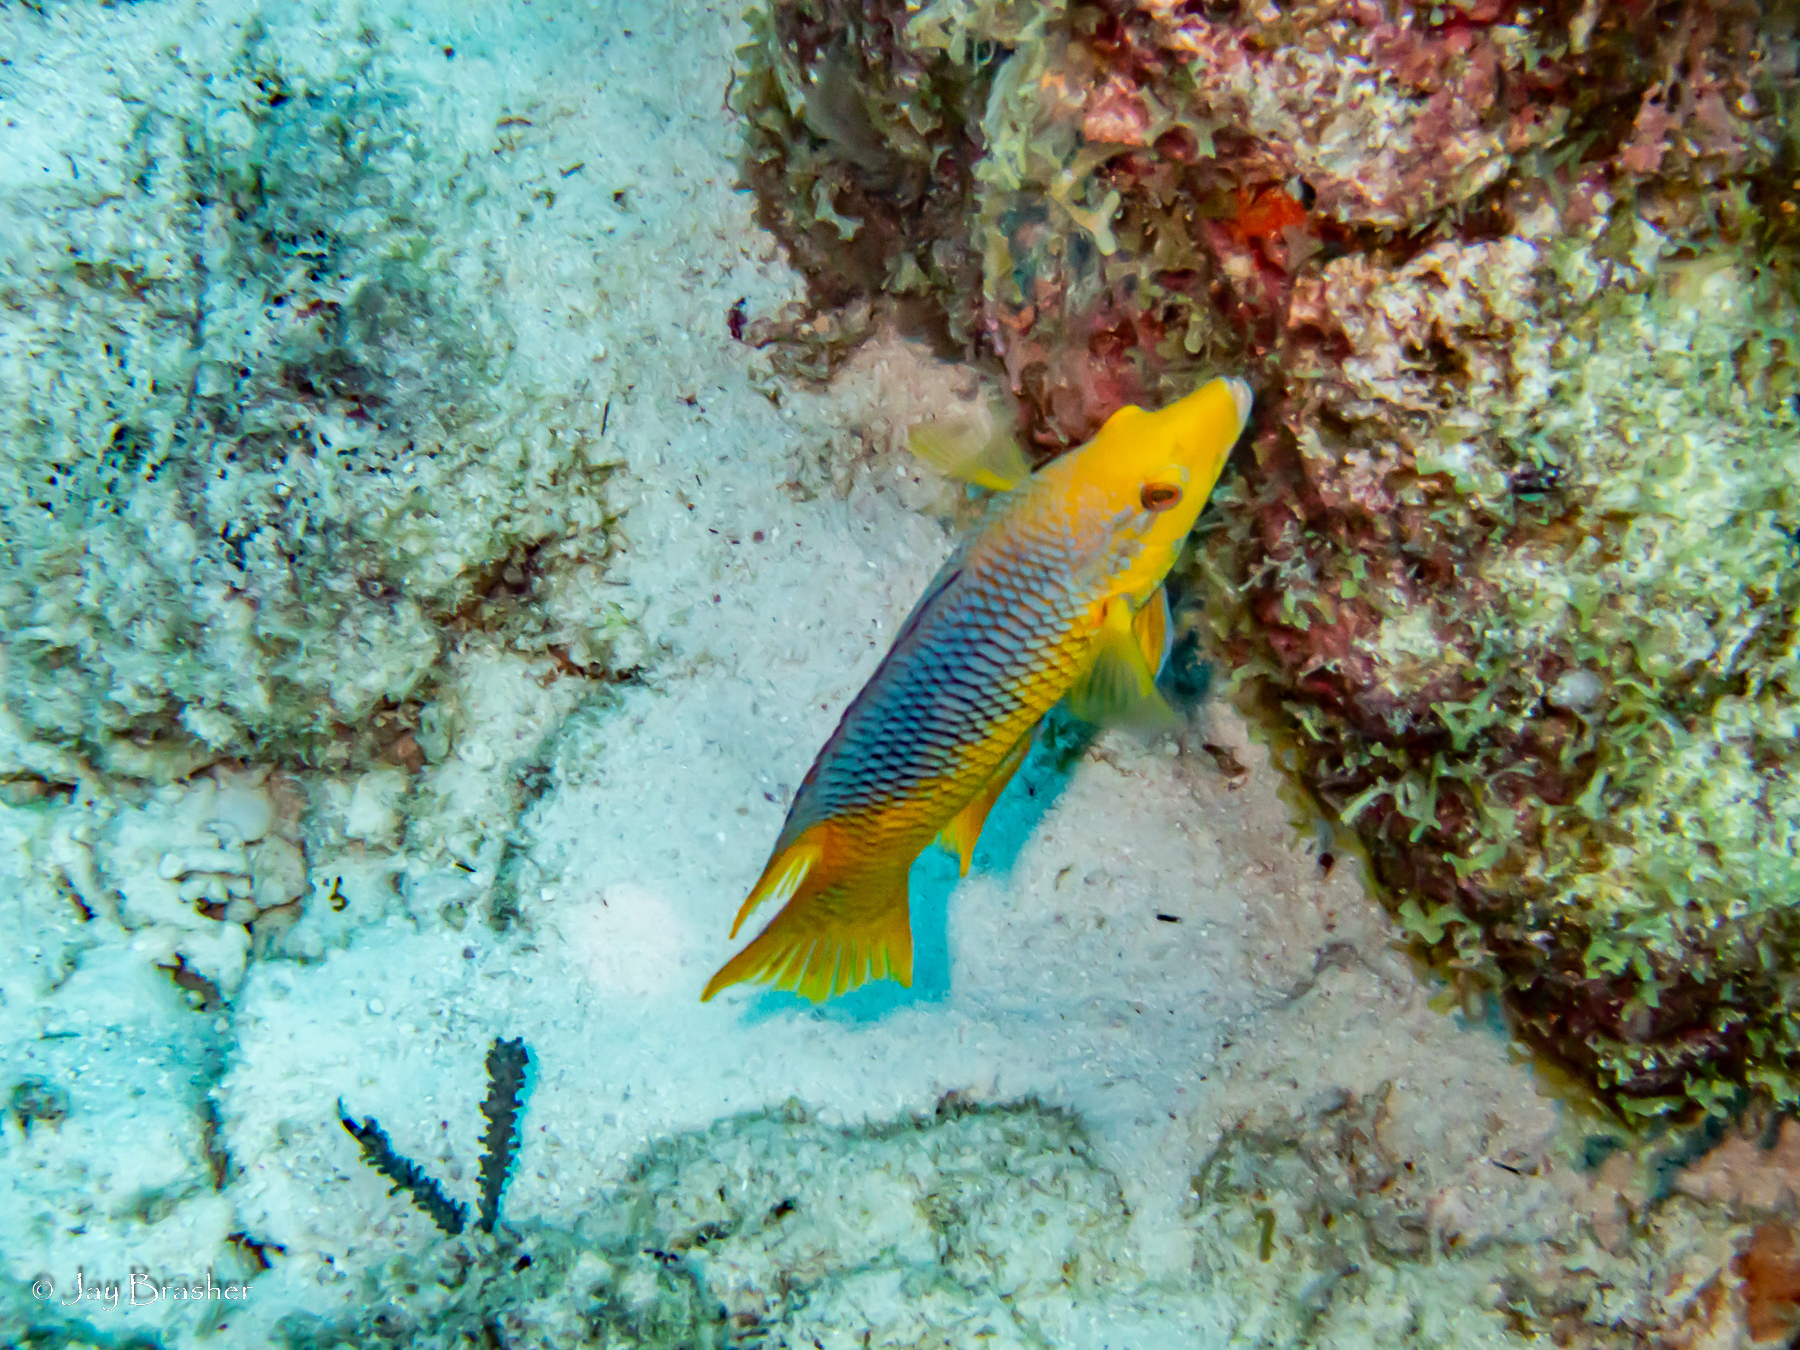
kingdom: Animalia
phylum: Chordata
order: Perciformes
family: Labridae
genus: Bodianus
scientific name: Bodianus rufus
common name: Spanish hogfish
